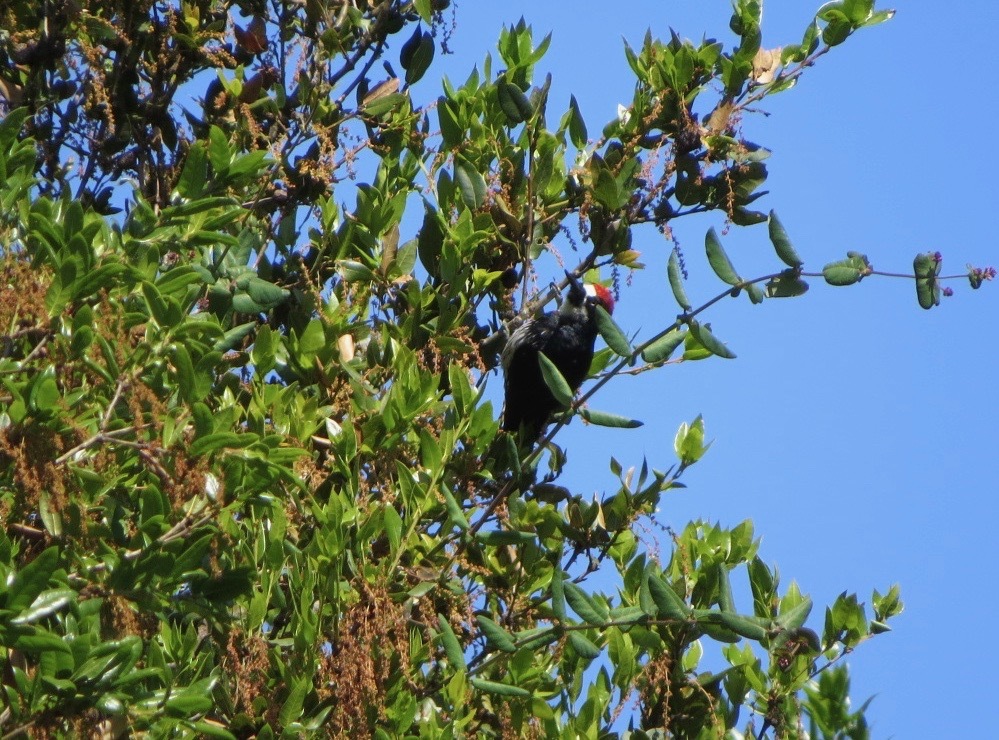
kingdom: Animalia
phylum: Chordata
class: Aves
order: Piciformes
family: Picidae
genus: Melanerpes
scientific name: Melanerpes formicivorus
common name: Acorn woodpecker
